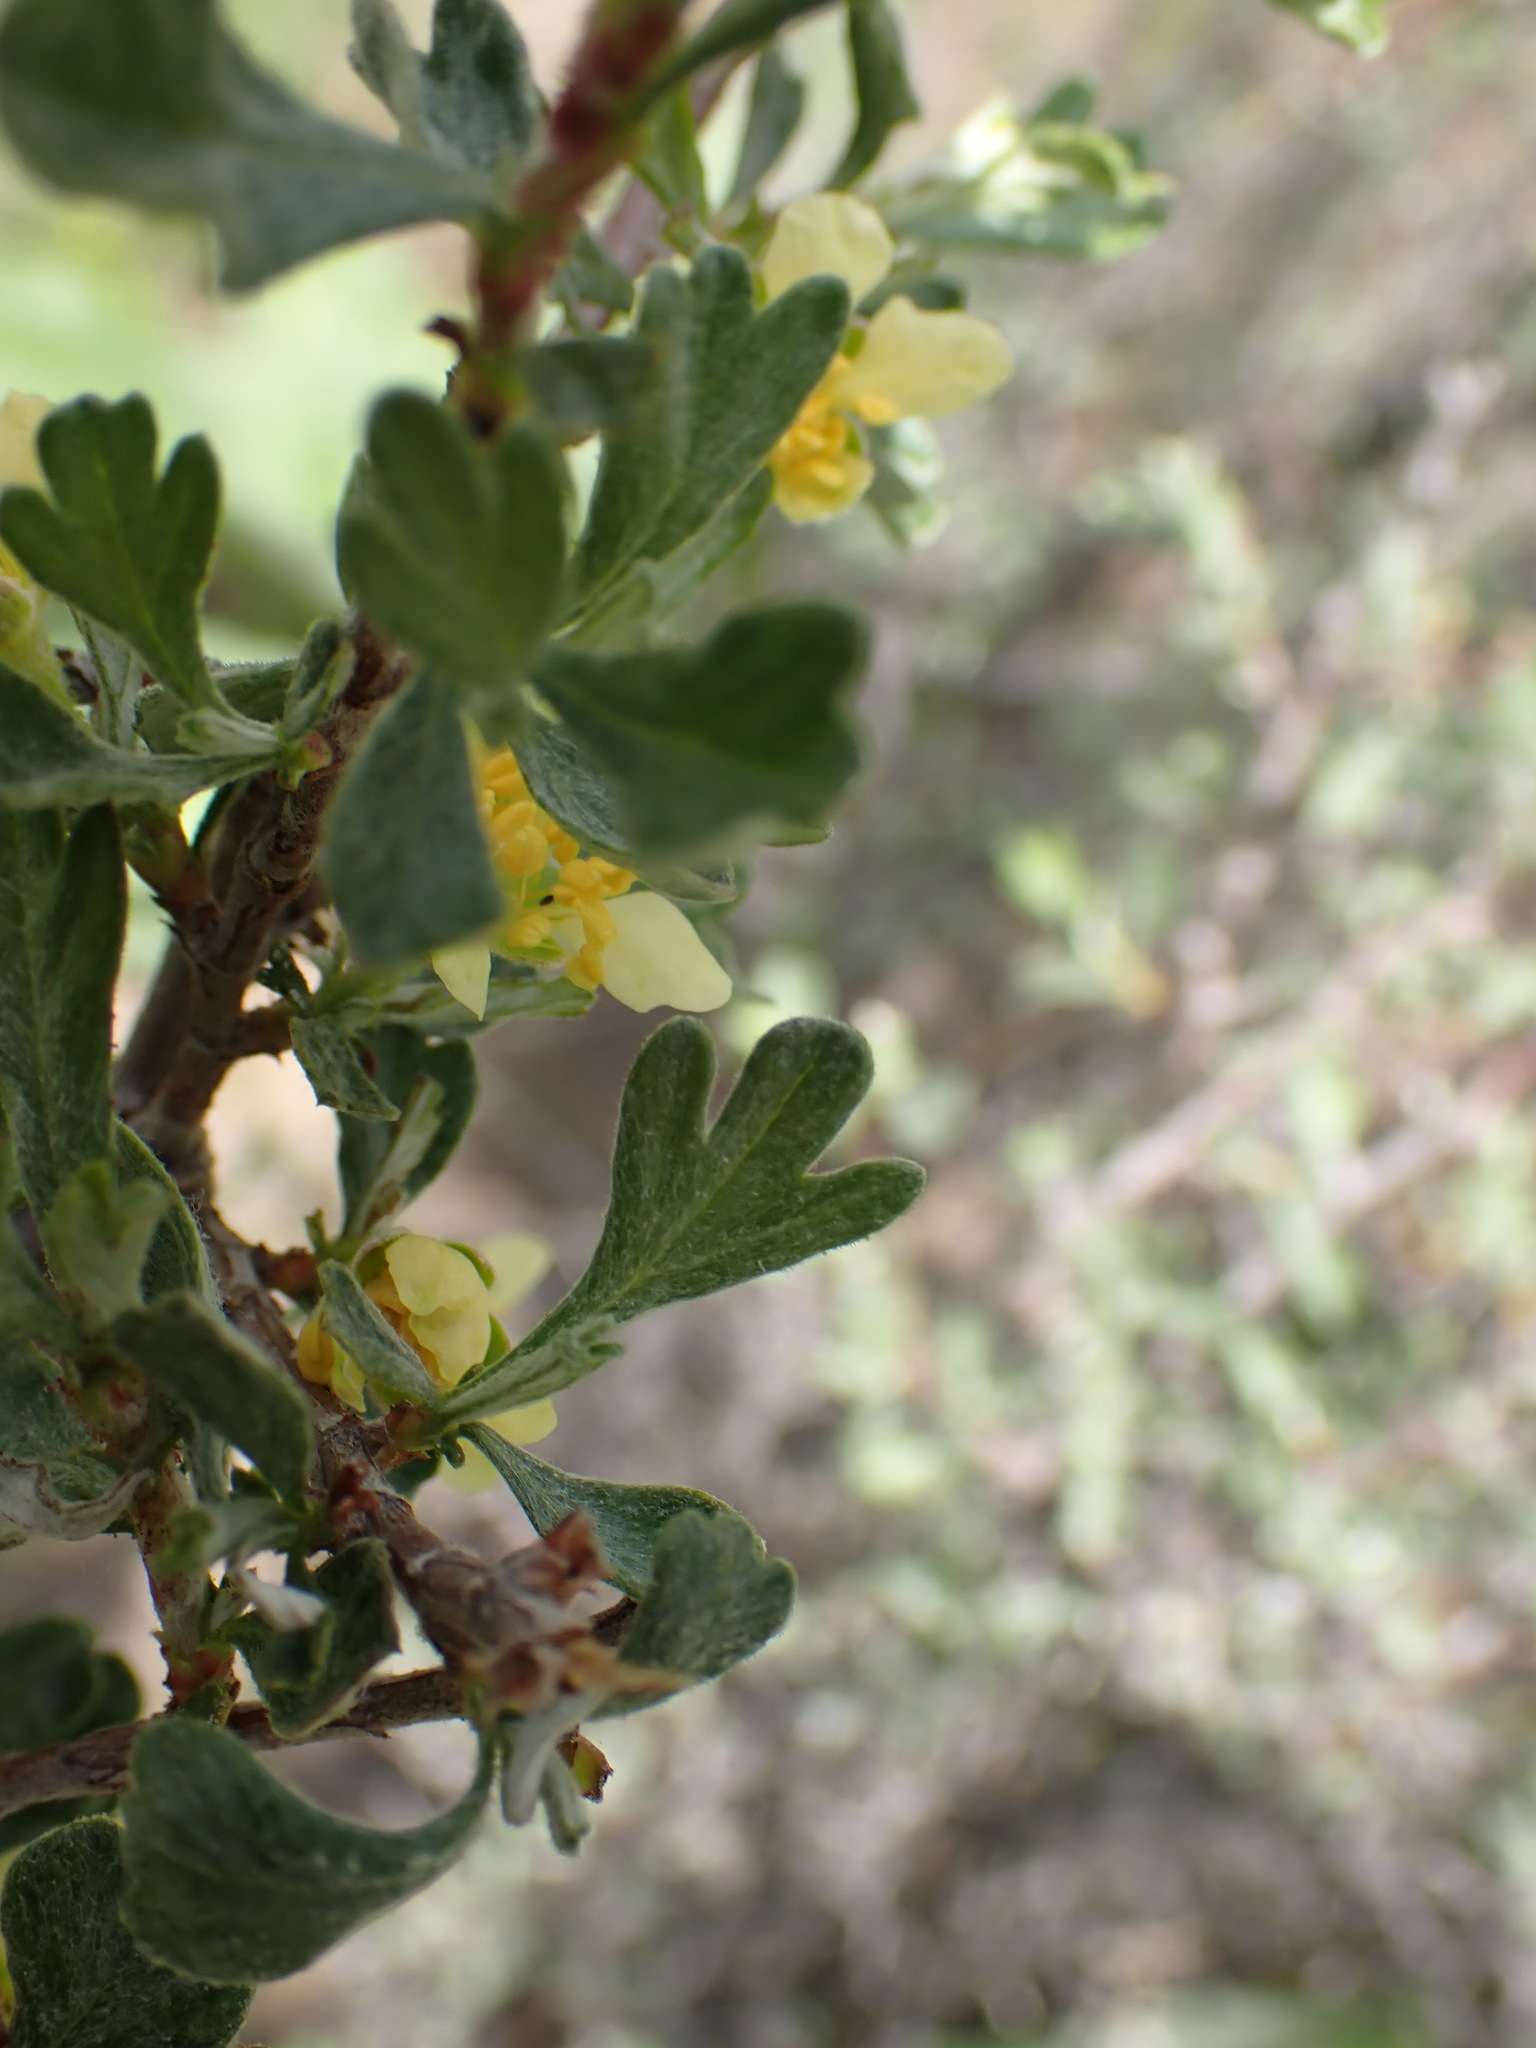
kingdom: Plantae
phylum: Tracheophyta
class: Magnoliopsida
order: Rosales
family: Rosaceae
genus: Purshia
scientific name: Purshia tridentata
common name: Antelope bitterbrush
